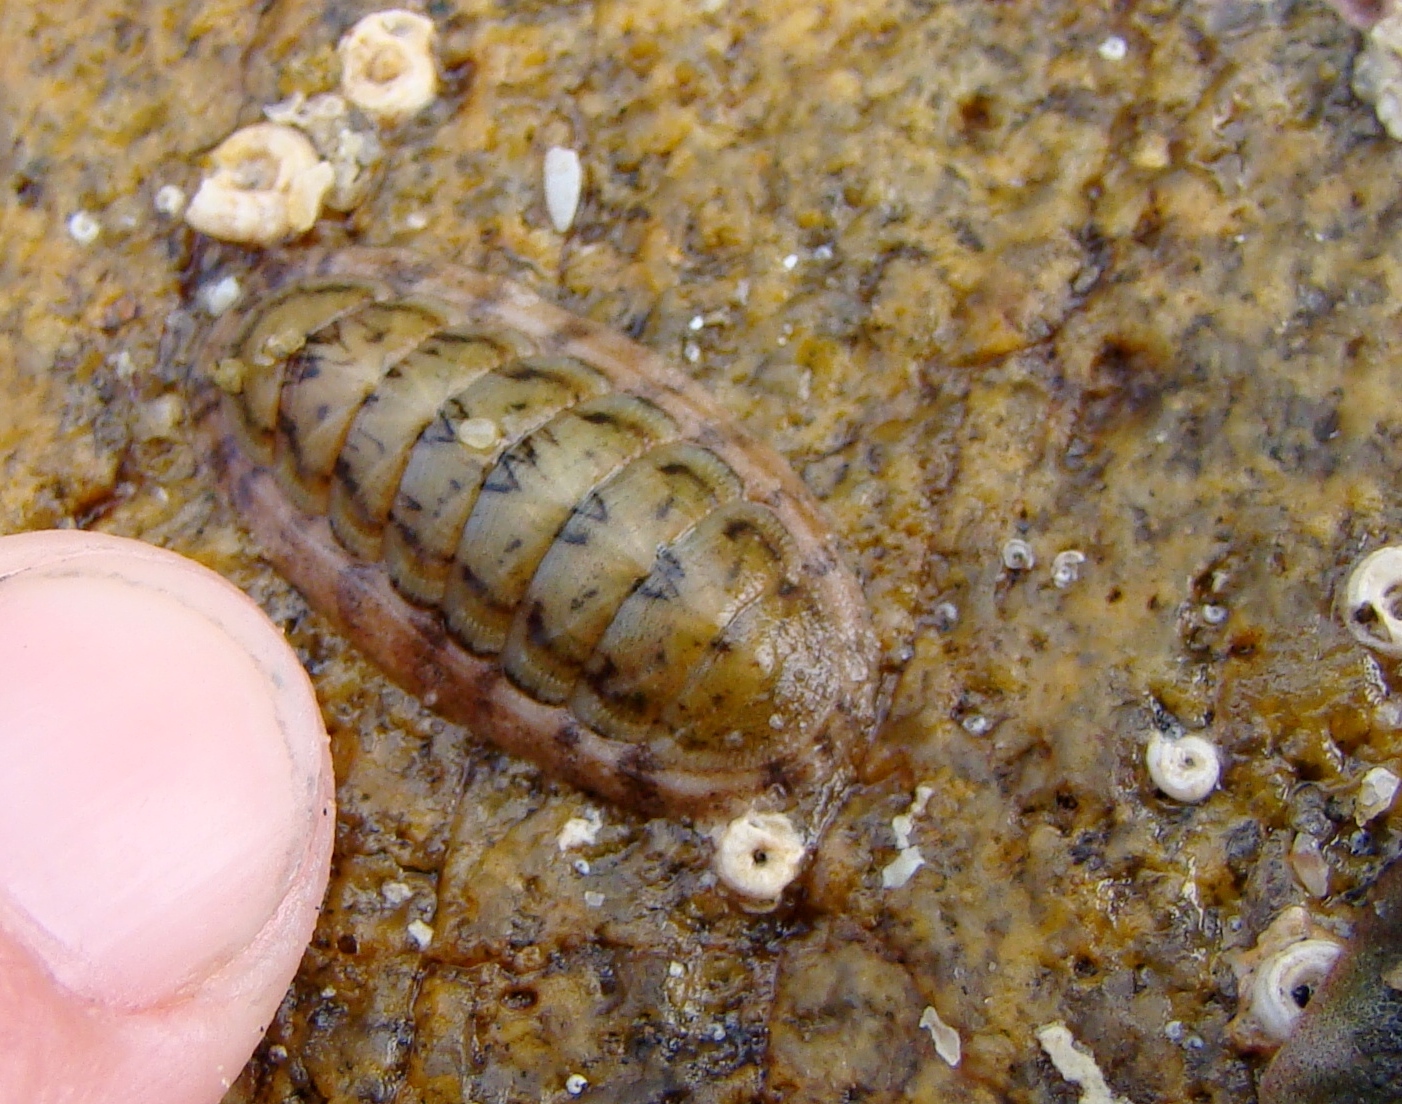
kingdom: Animalia
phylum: Mollusca
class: Polyplacophora
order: Chitonida
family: Ischnochitonidae
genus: Ischnochiton
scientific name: Ischnochiton maorianus
